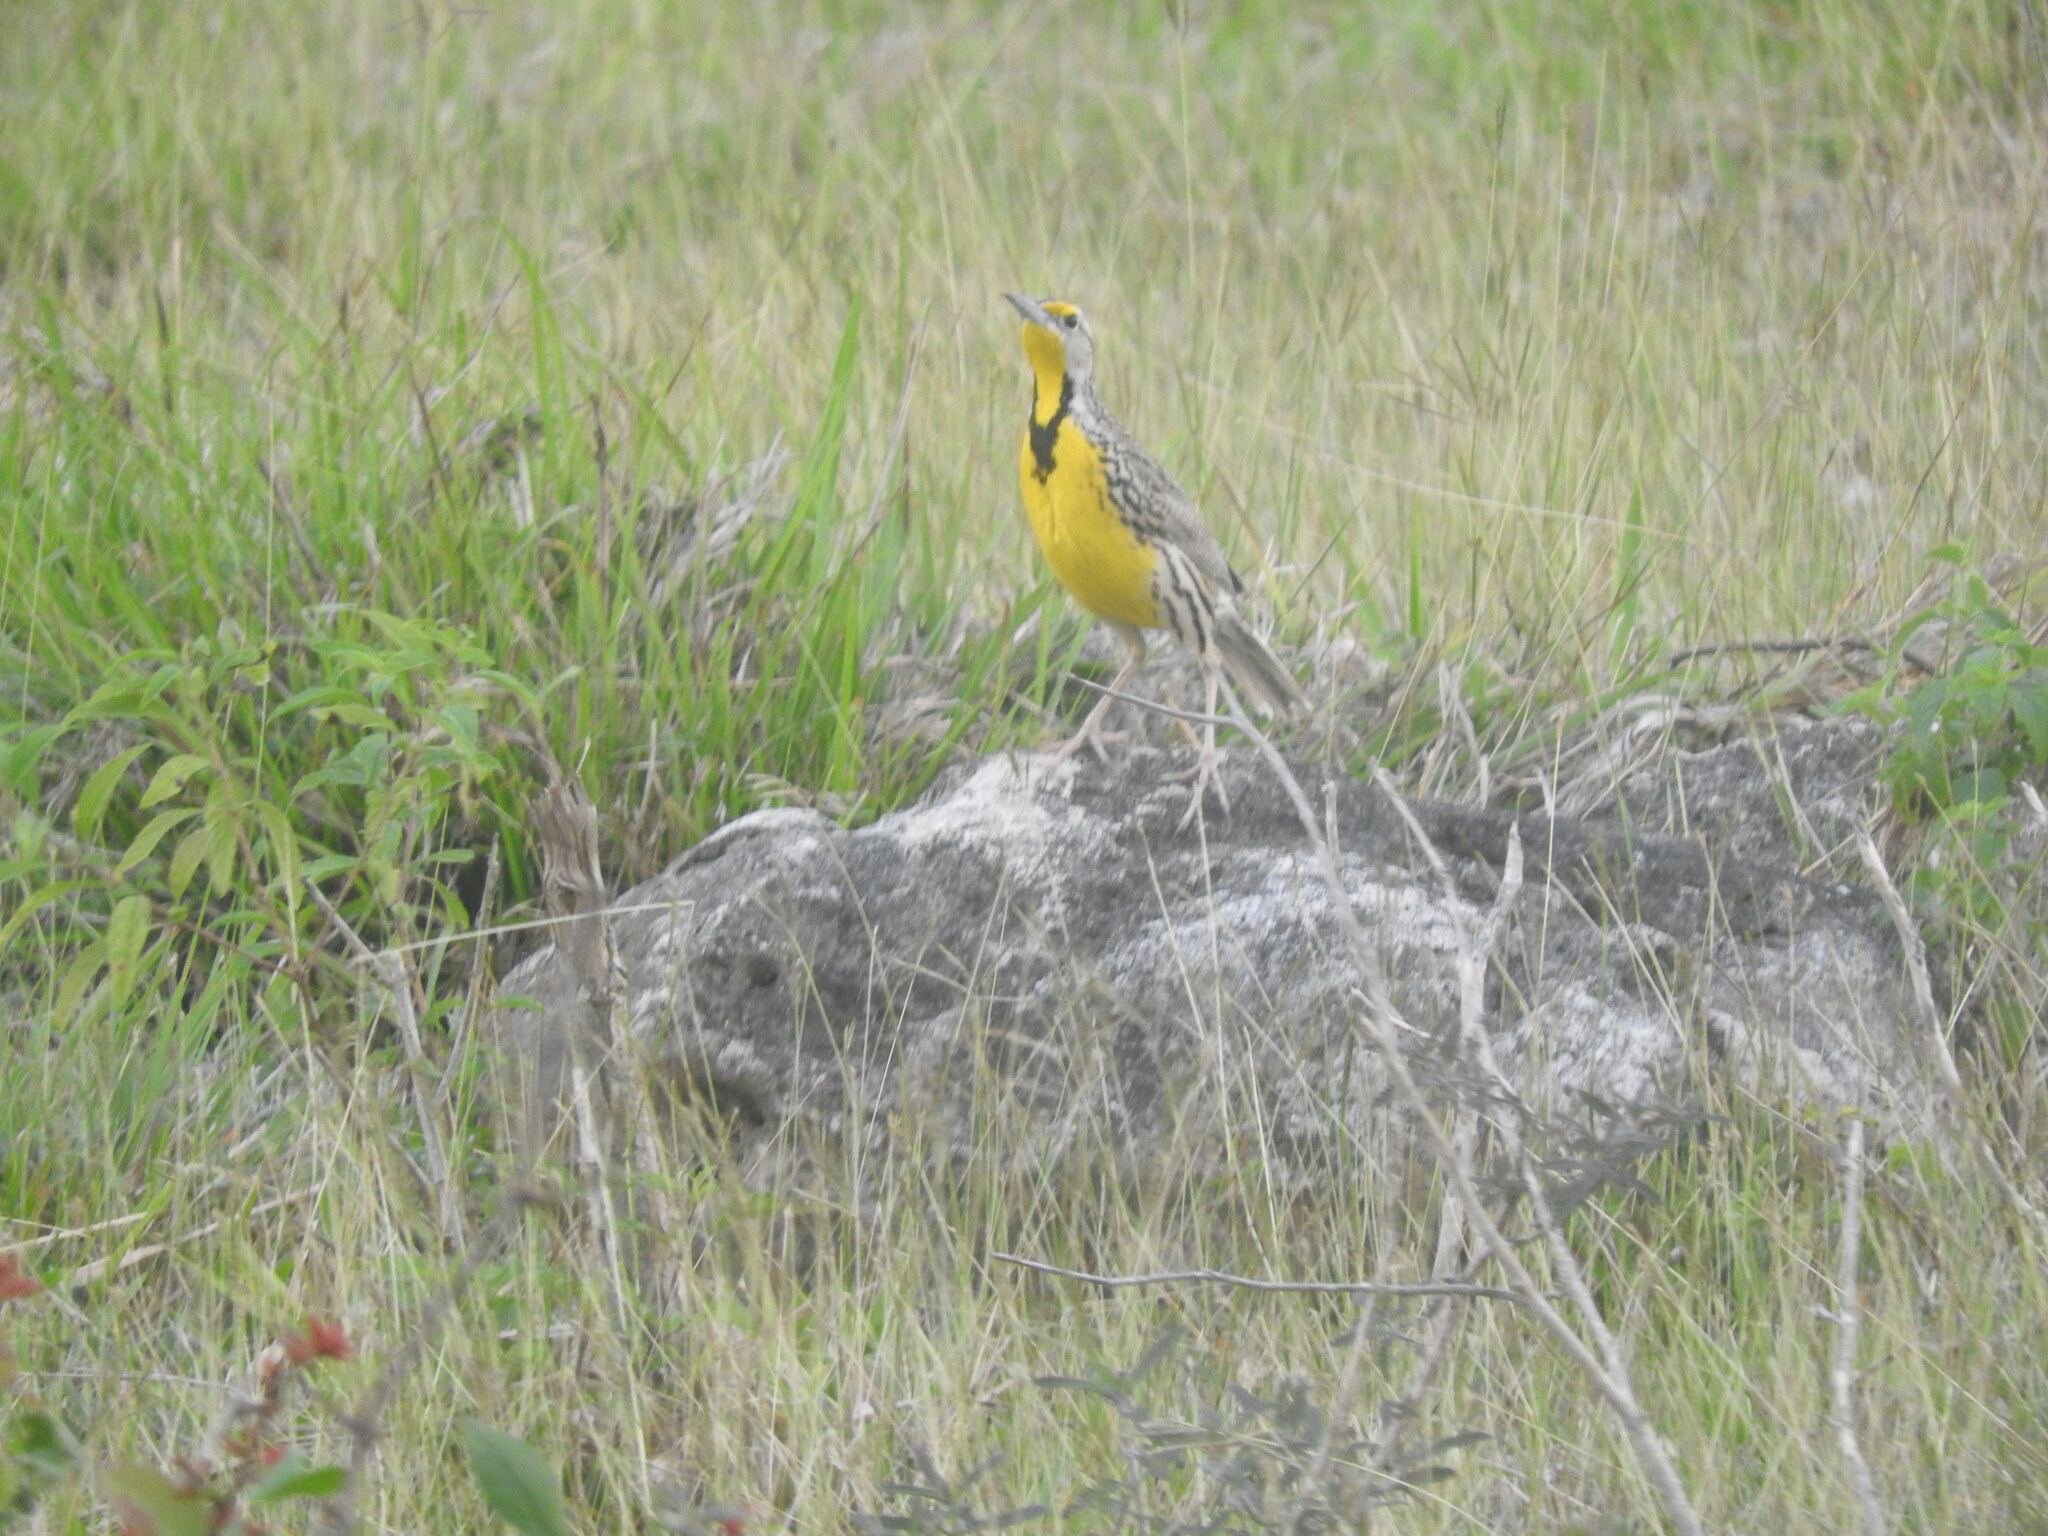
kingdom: Animalia
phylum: Chordata
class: Aves
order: Passeriformes
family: Icteridae
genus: Sturnella
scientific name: Sturnella magna
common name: Eastern meadowlark
